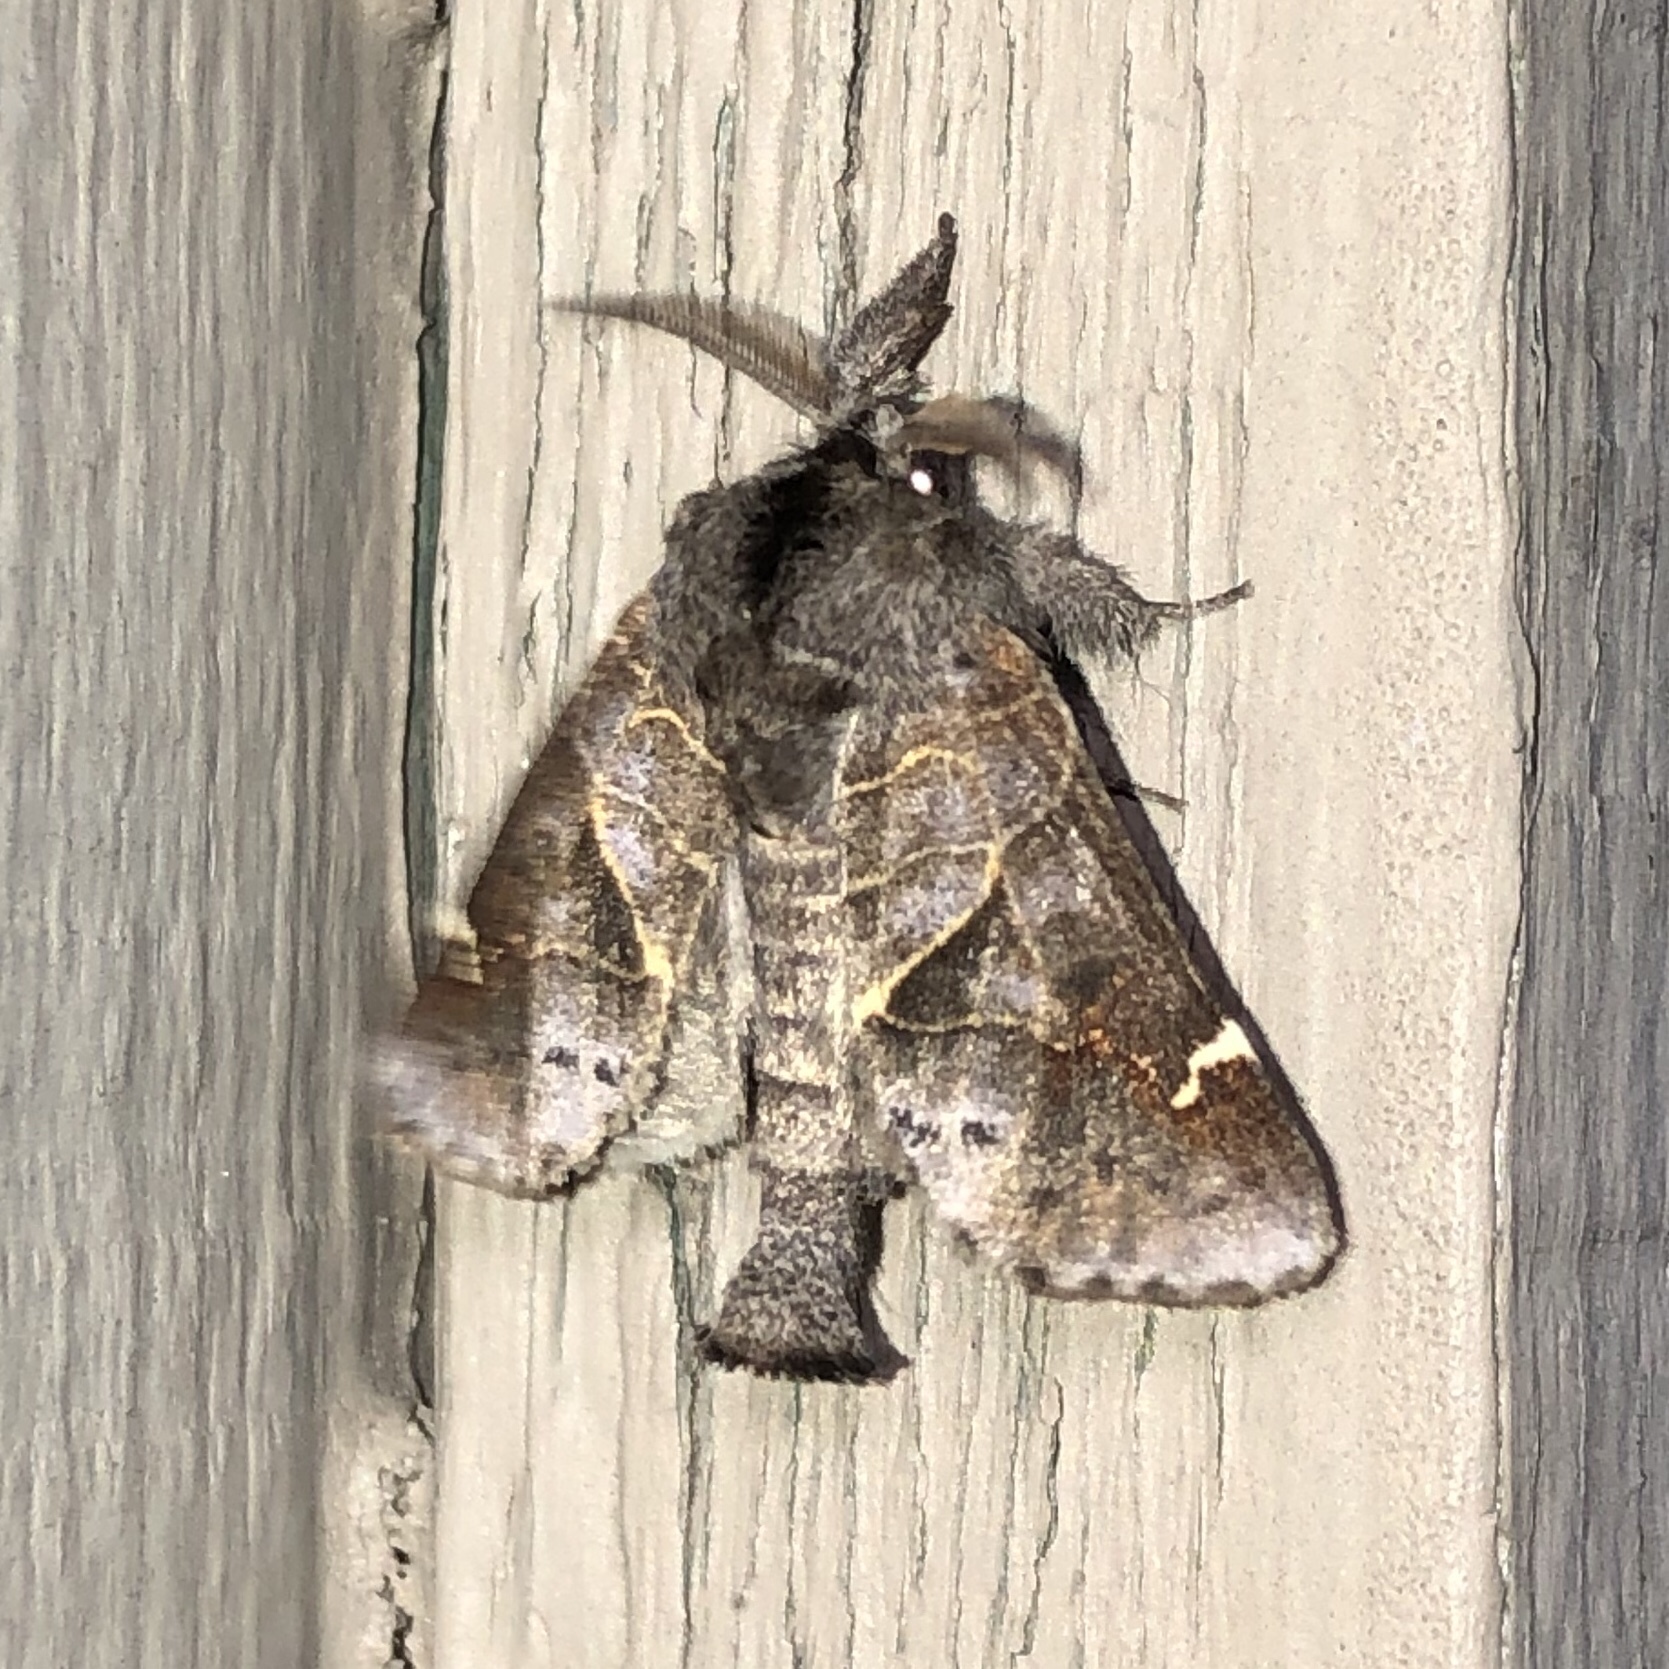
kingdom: Animalia
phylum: Arthropoda
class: Insecta
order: Lepidoptera
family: Notodontidae
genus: Clostera
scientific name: Clostera apicalis
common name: Apical prominent
